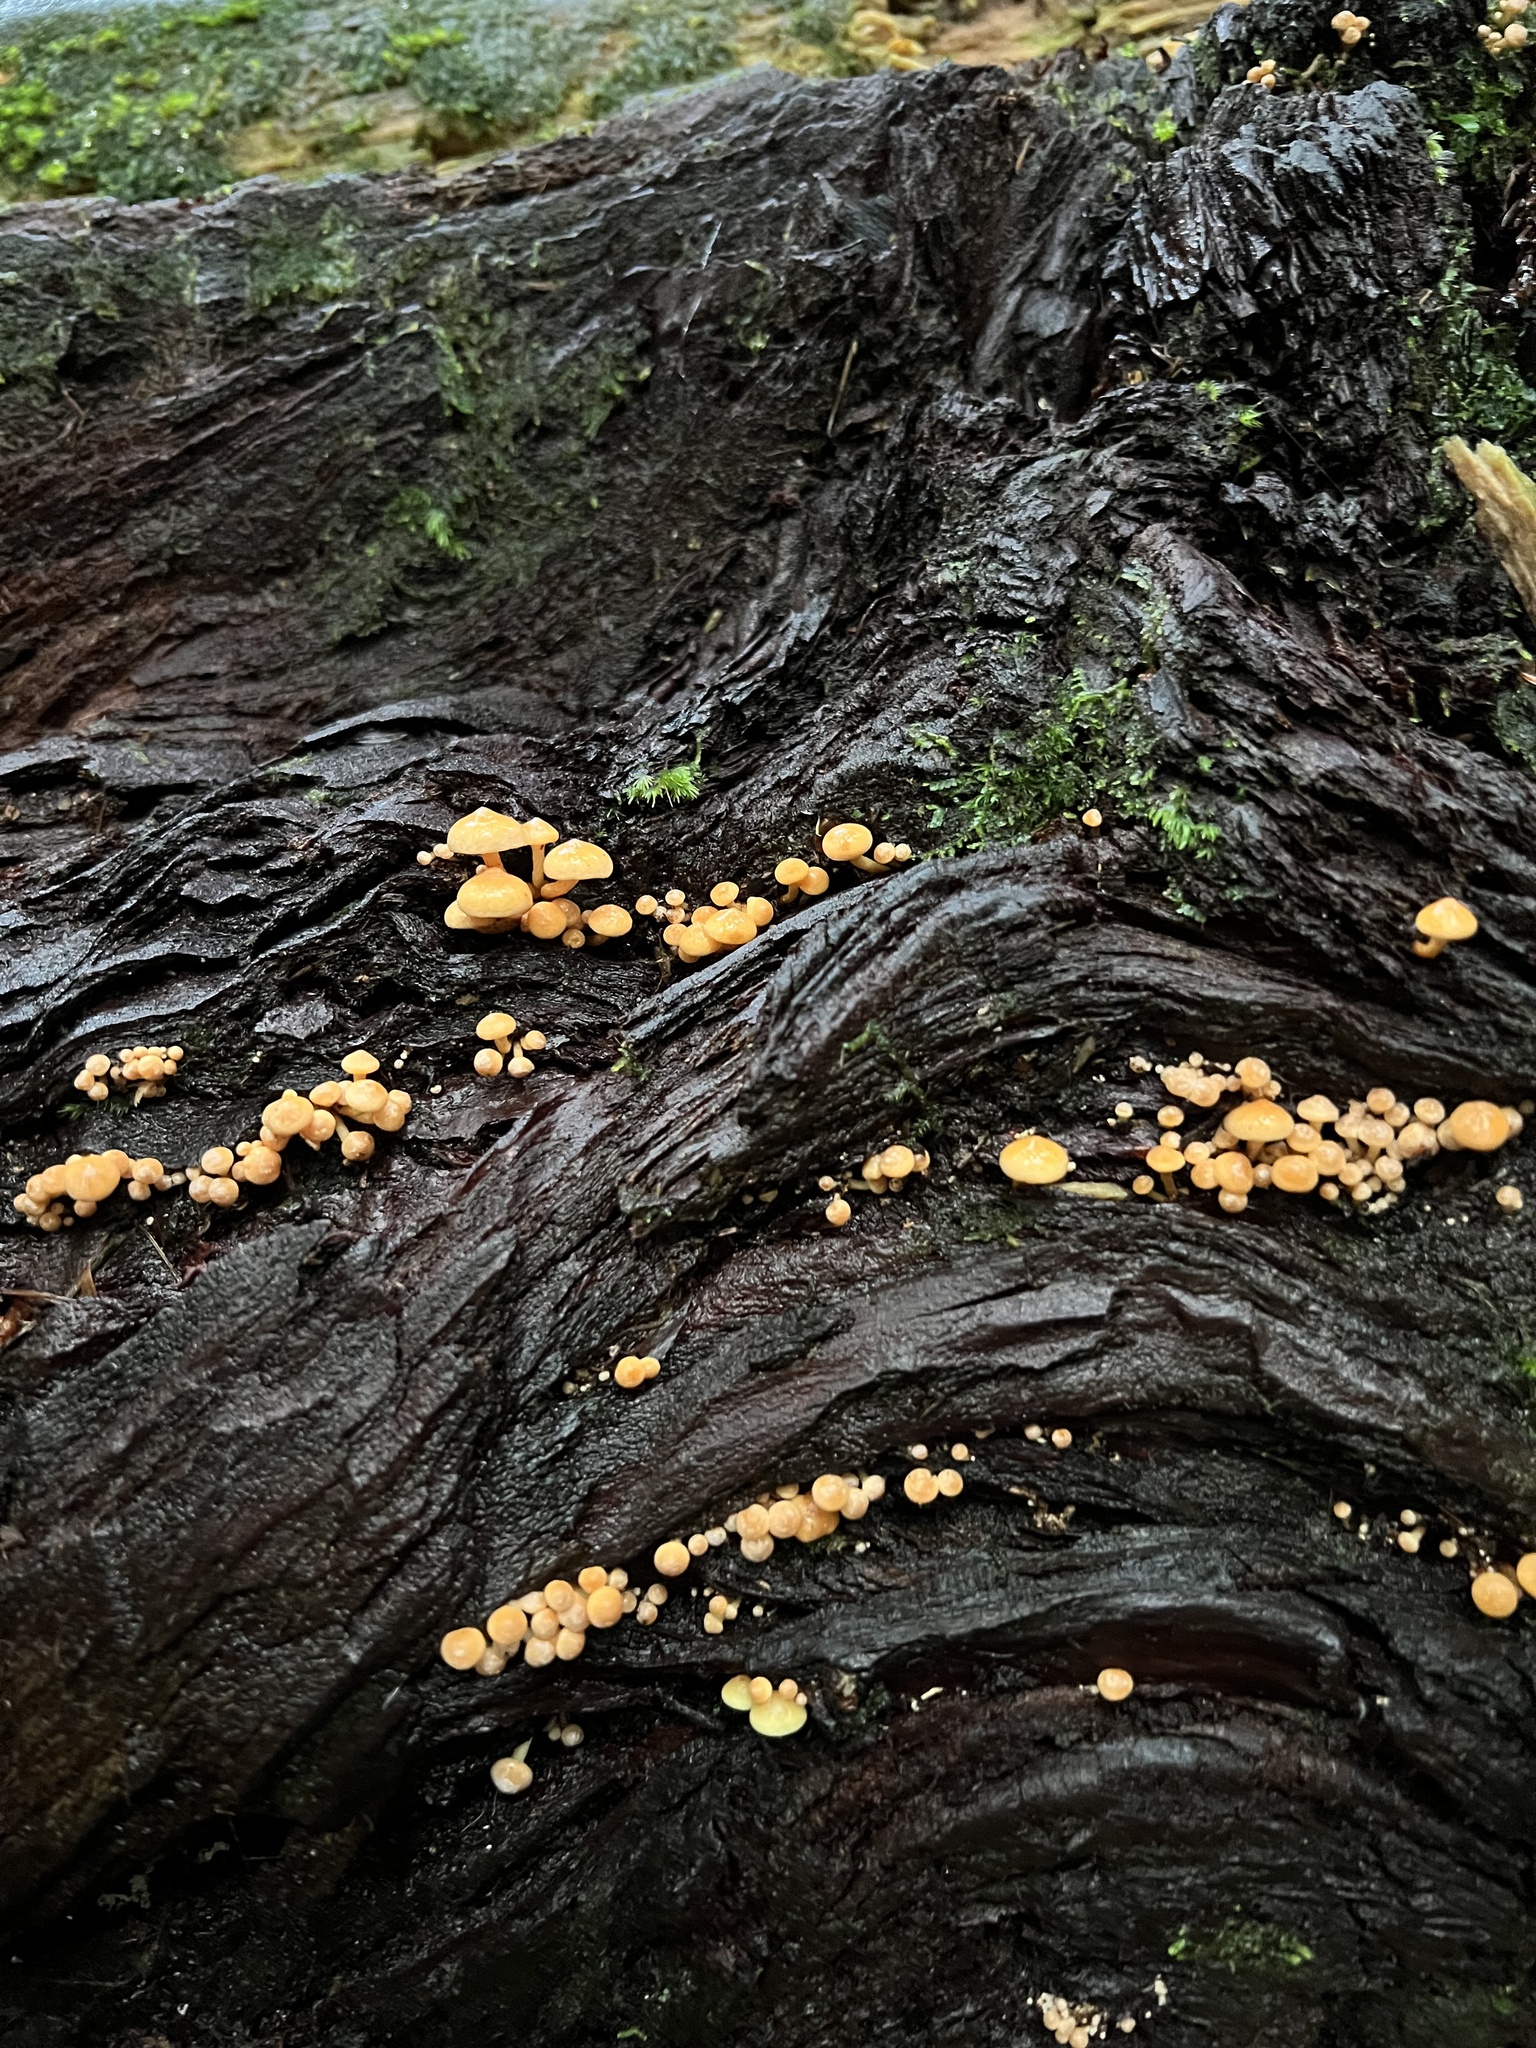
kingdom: Fungi
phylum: Basidiomycota
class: Agaricomycetes
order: Agaricales
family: Strophariaceae
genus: Hypholoma
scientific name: Hypholoma acutum
